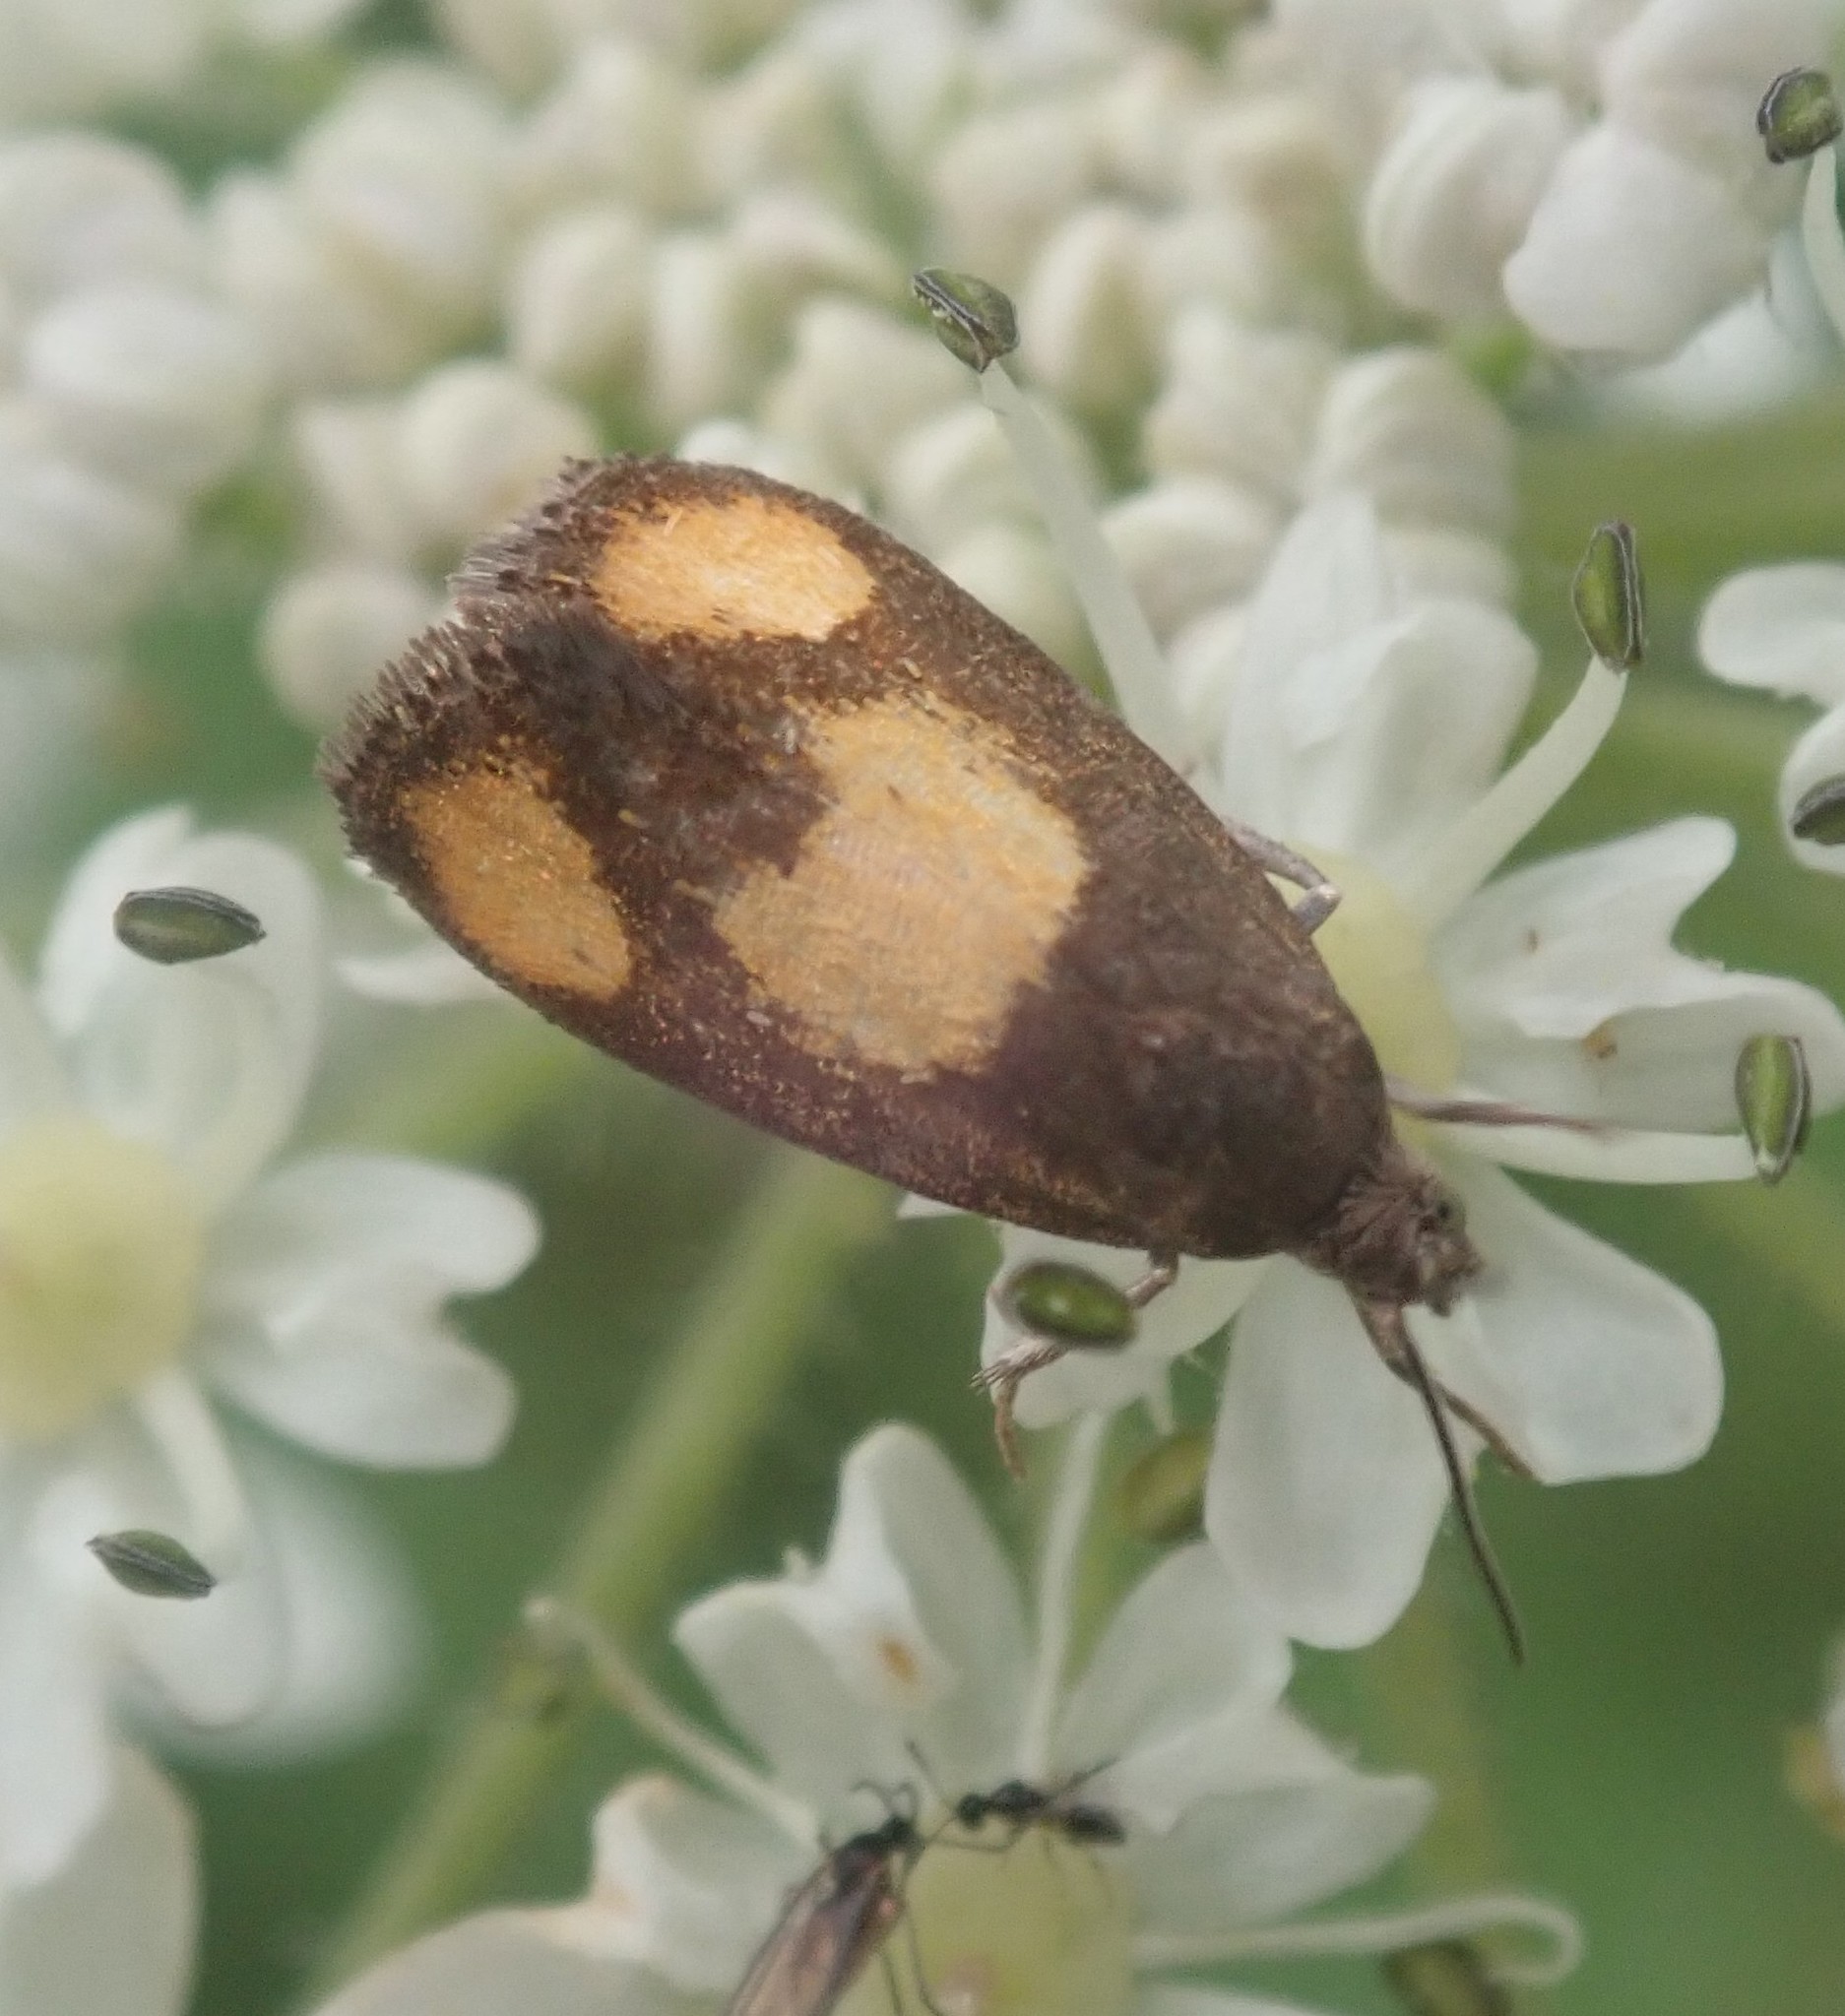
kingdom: Animalia
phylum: Arthropoda
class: Insecta
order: Lepidoptera
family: Tortricidae
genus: Pammene
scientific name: Pammene aurana
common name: Orange-spot piercer
